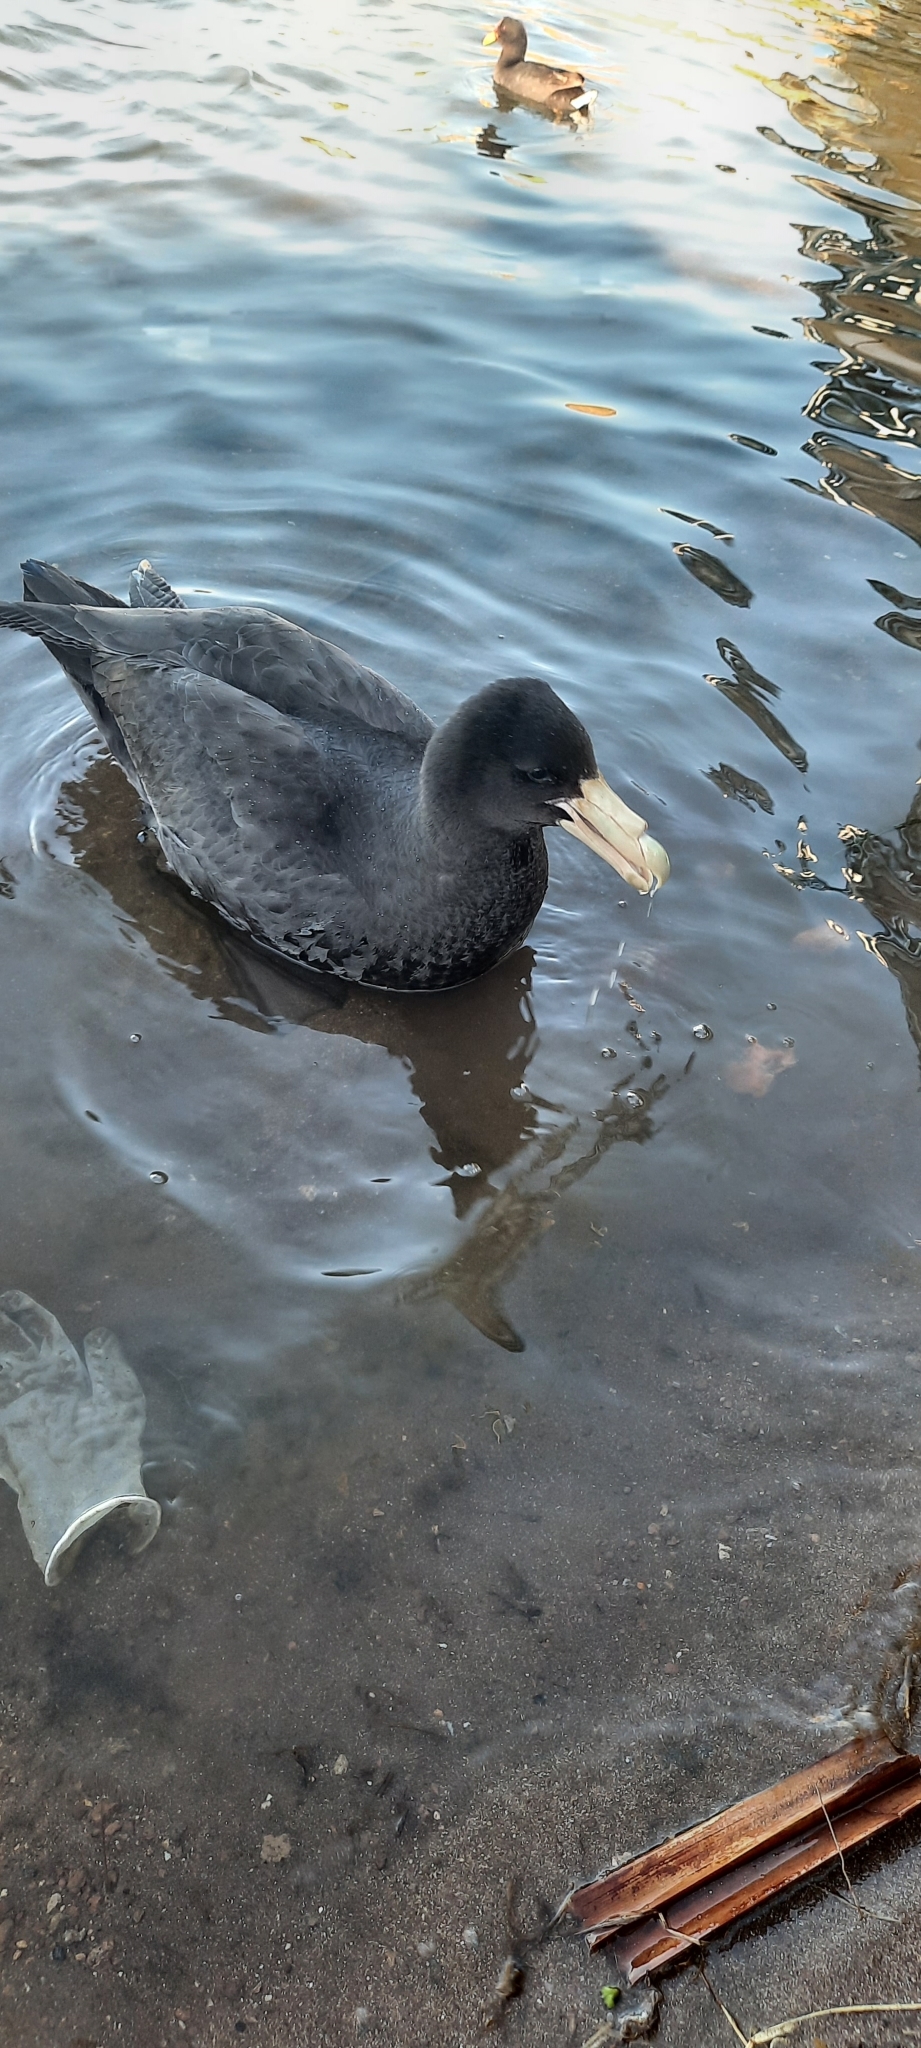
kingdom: Animalia
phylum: Chordata
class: Aves
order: Procellariiformes
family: Procellariidae
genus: Macronectes
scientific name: Macronectes giganteus
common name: Southern giant petrel
